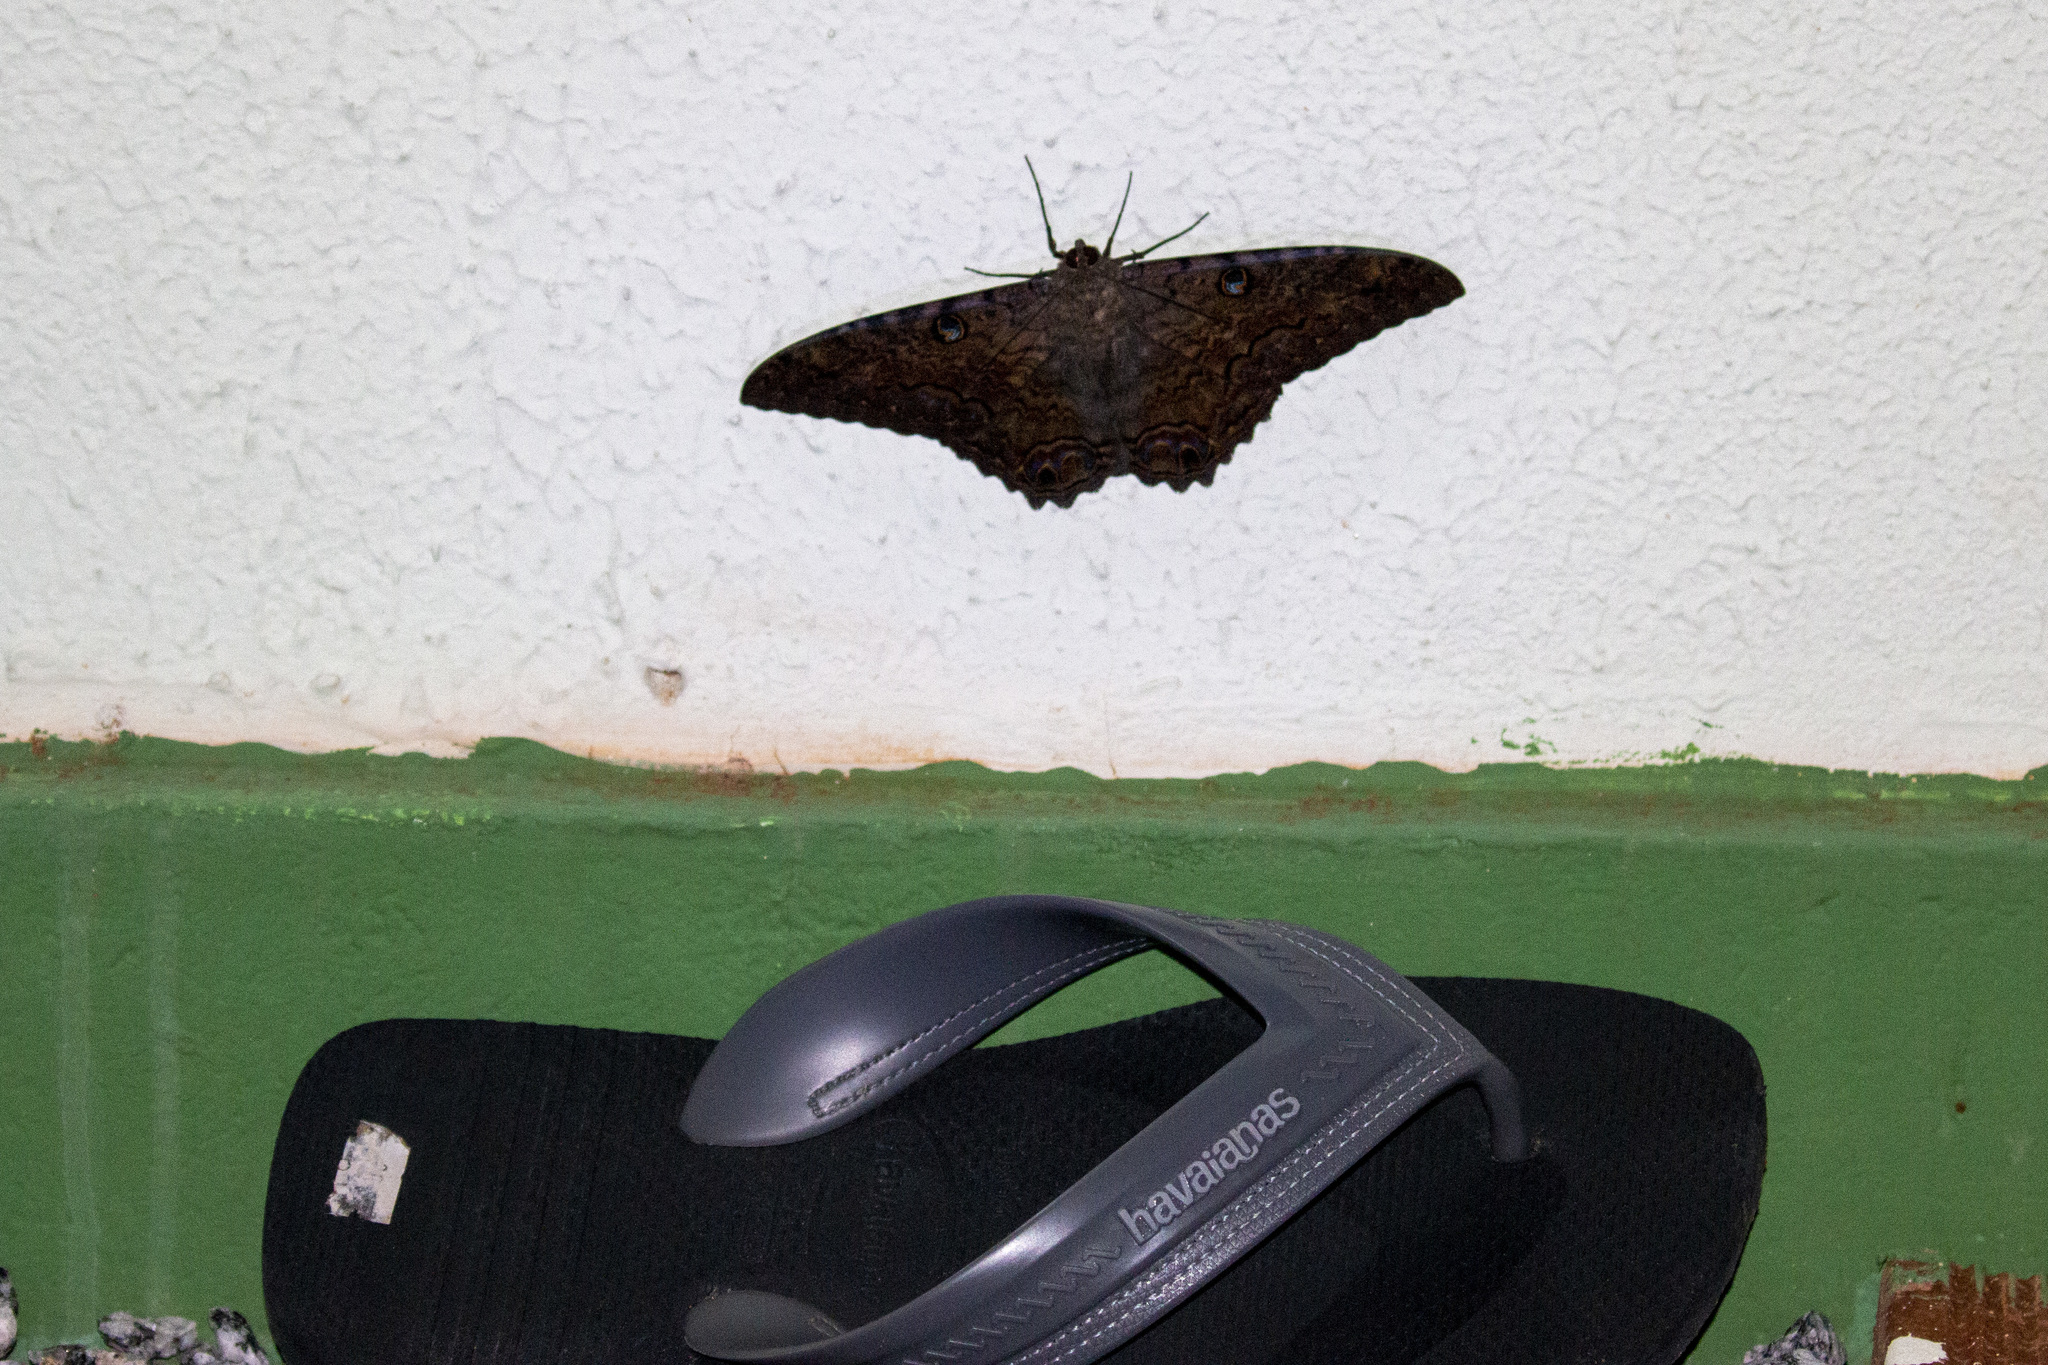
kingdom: Animalia
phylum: Arthropoda
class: Insecta
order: Lepidoptera
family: Erebidae
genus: Ascalapha
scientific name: Ascalapha odorata
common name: Black witch
